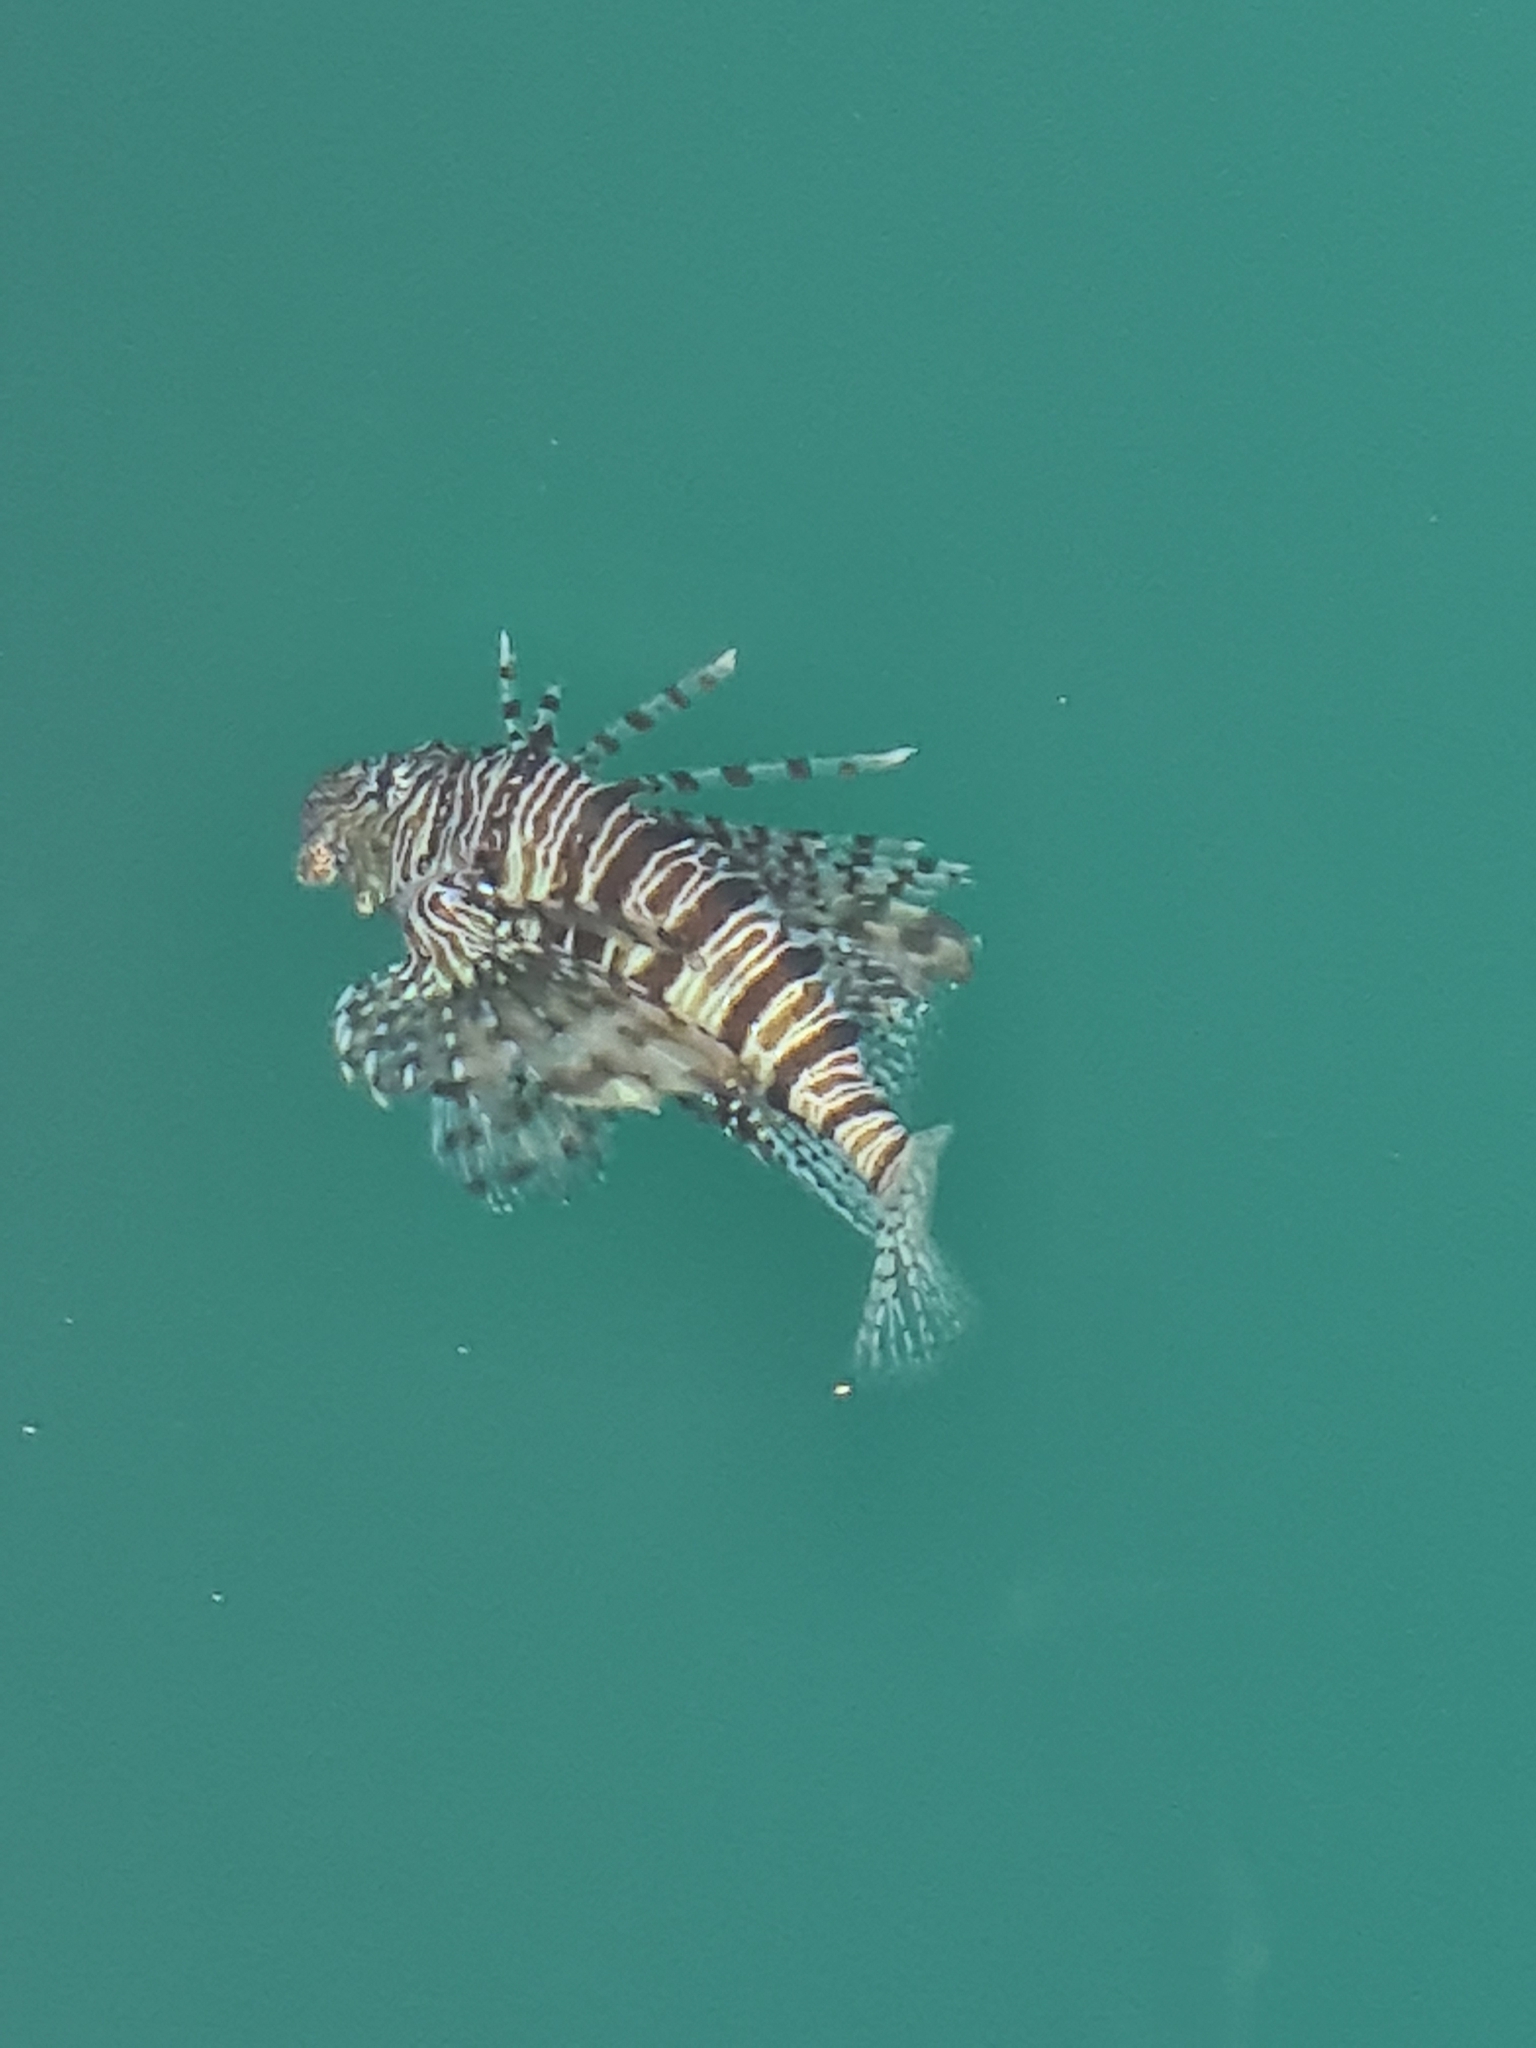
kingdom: Animalia
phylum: Chordata
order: Scorpaeniformes
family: Scorpaenidae
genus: Pterois
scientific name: Pterois miles
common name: Devil firefish
